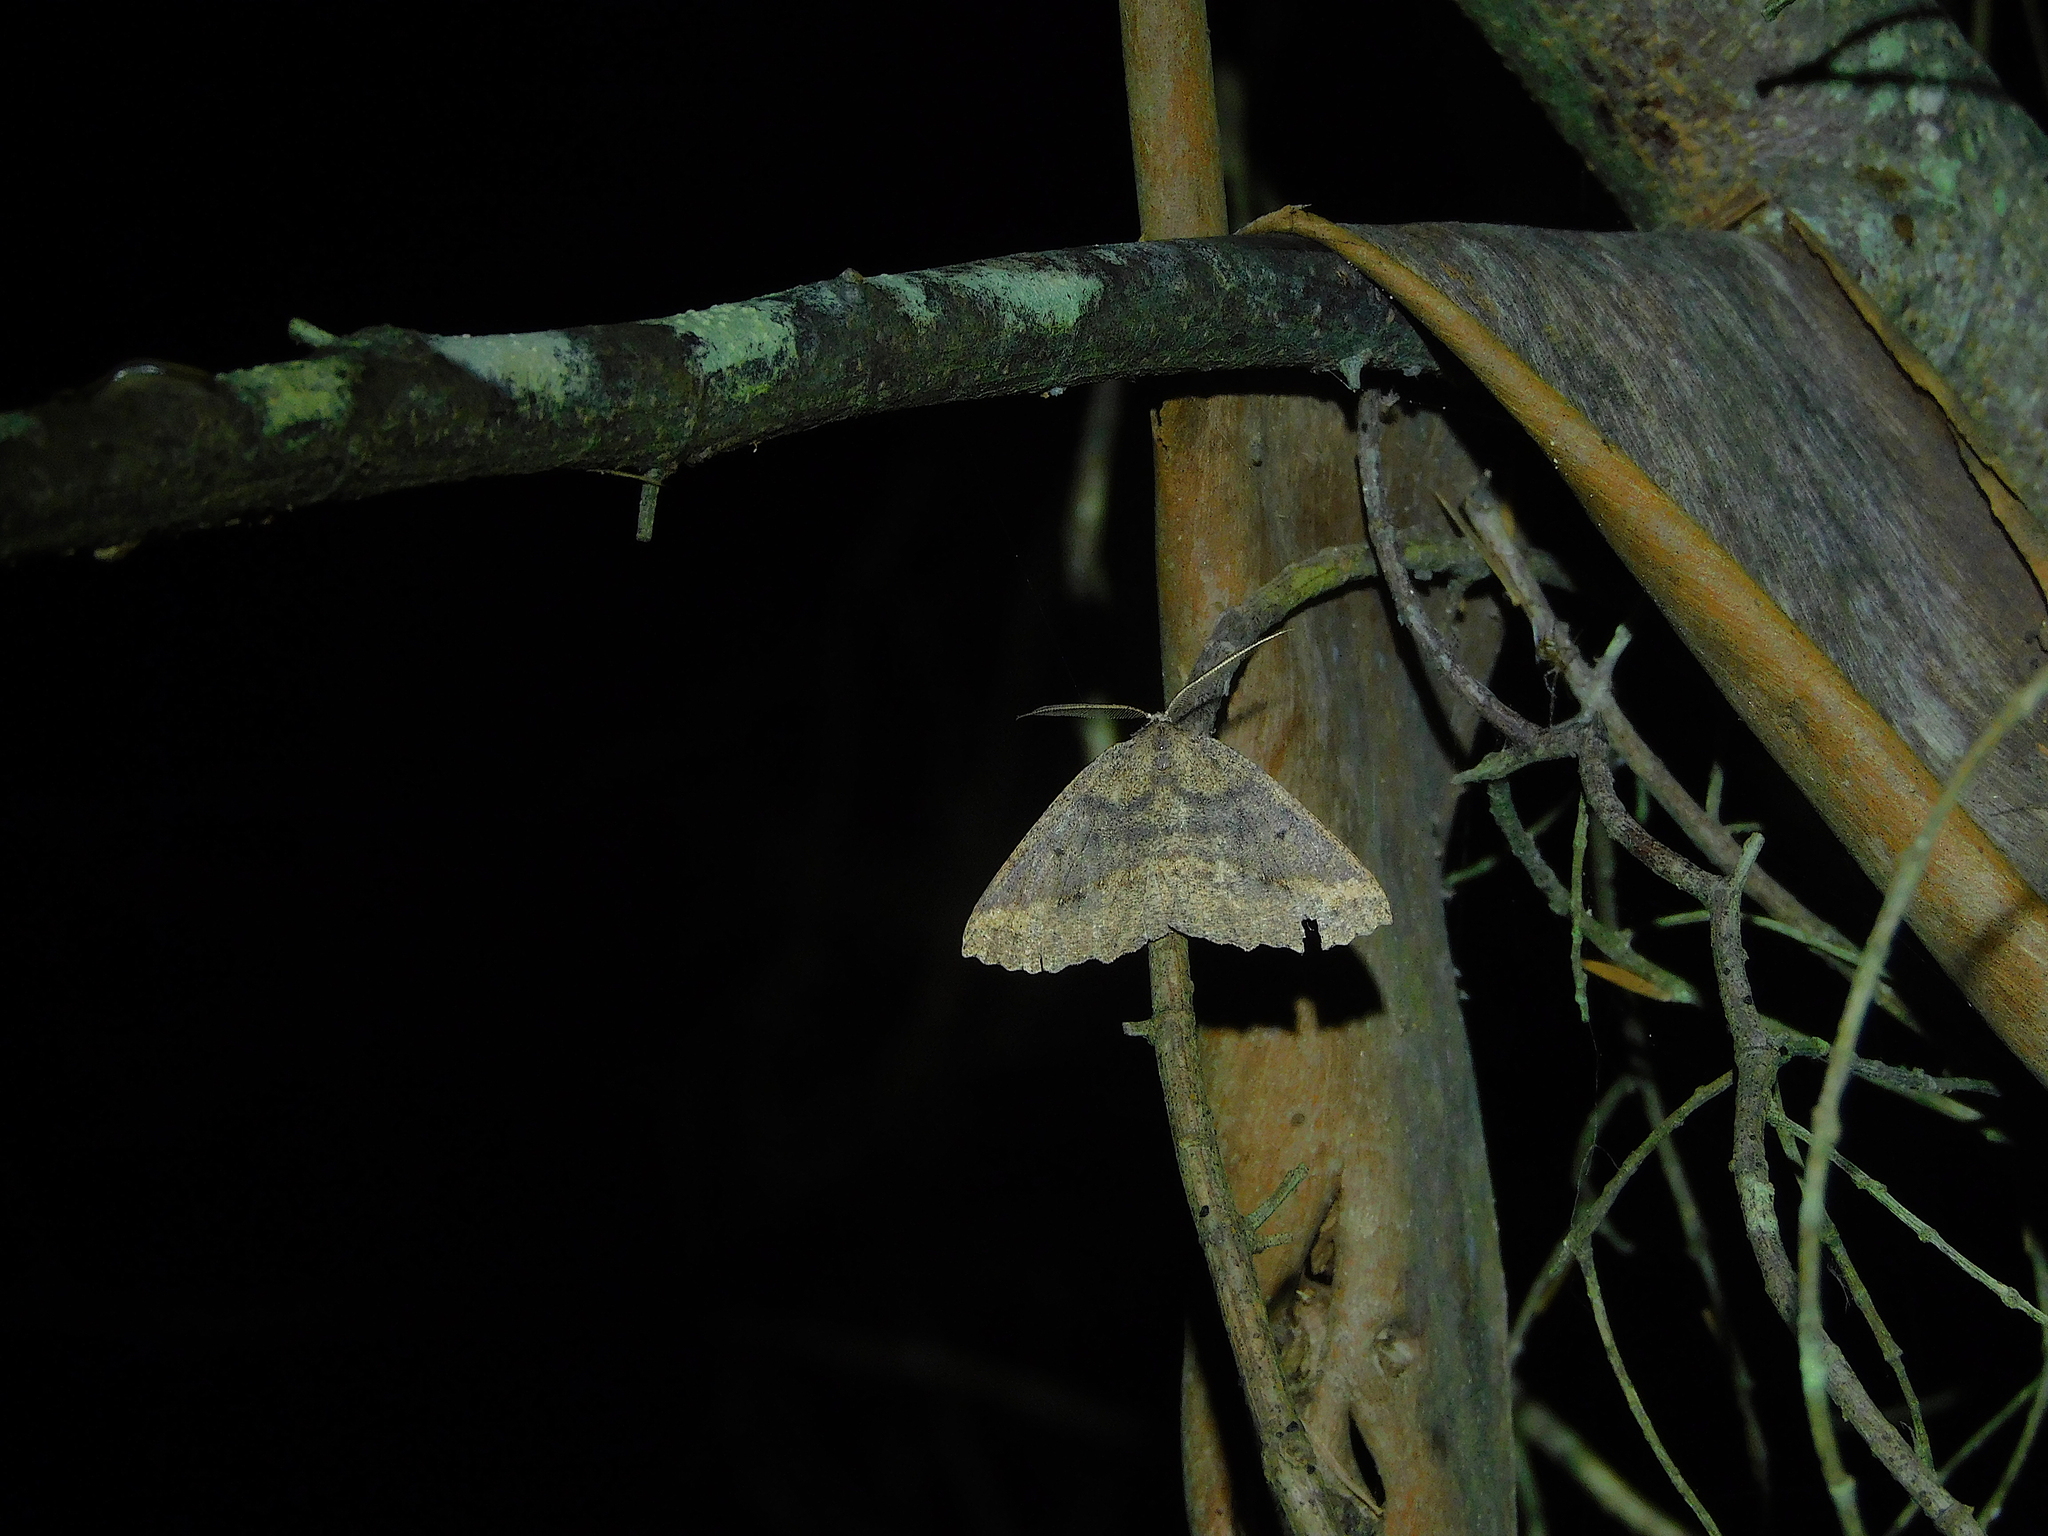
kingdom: Animalia
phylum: Arthropoda
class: Insecta
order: Lepidoptera
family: Geometridae
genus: Xenomusa
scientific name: Xenomusa
